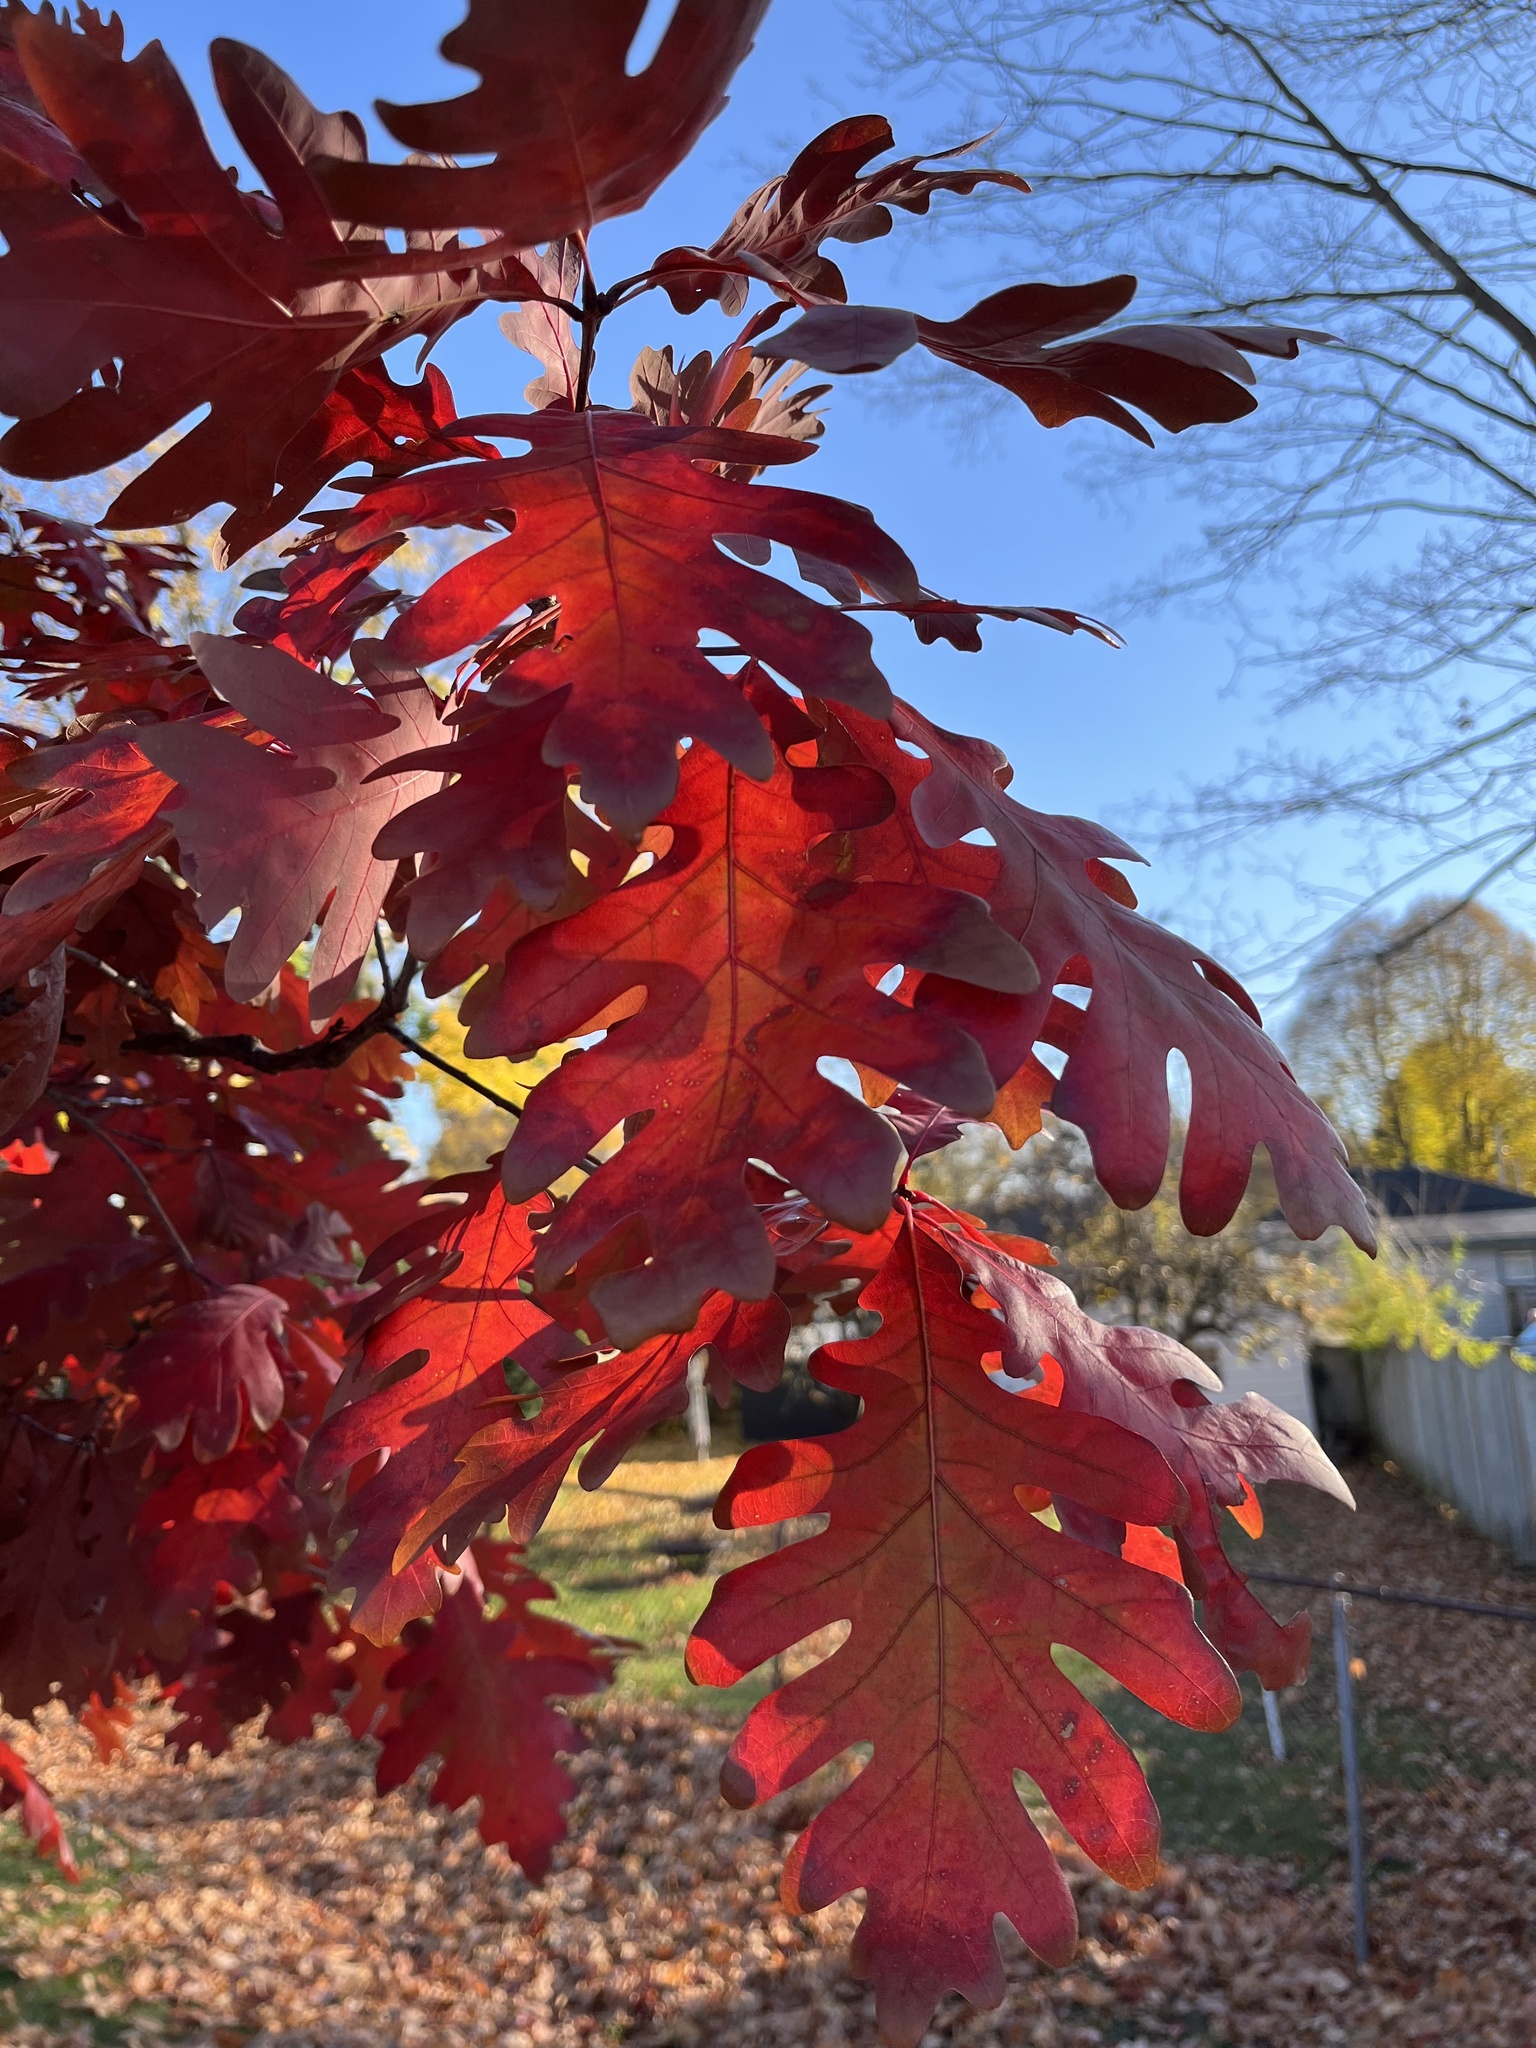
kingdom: Plantae
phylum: Tracheophyta
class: Magnoliopsida
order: Fagales
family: Fagaceae
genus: Quercus
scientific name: Quercus alba
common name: White oak
